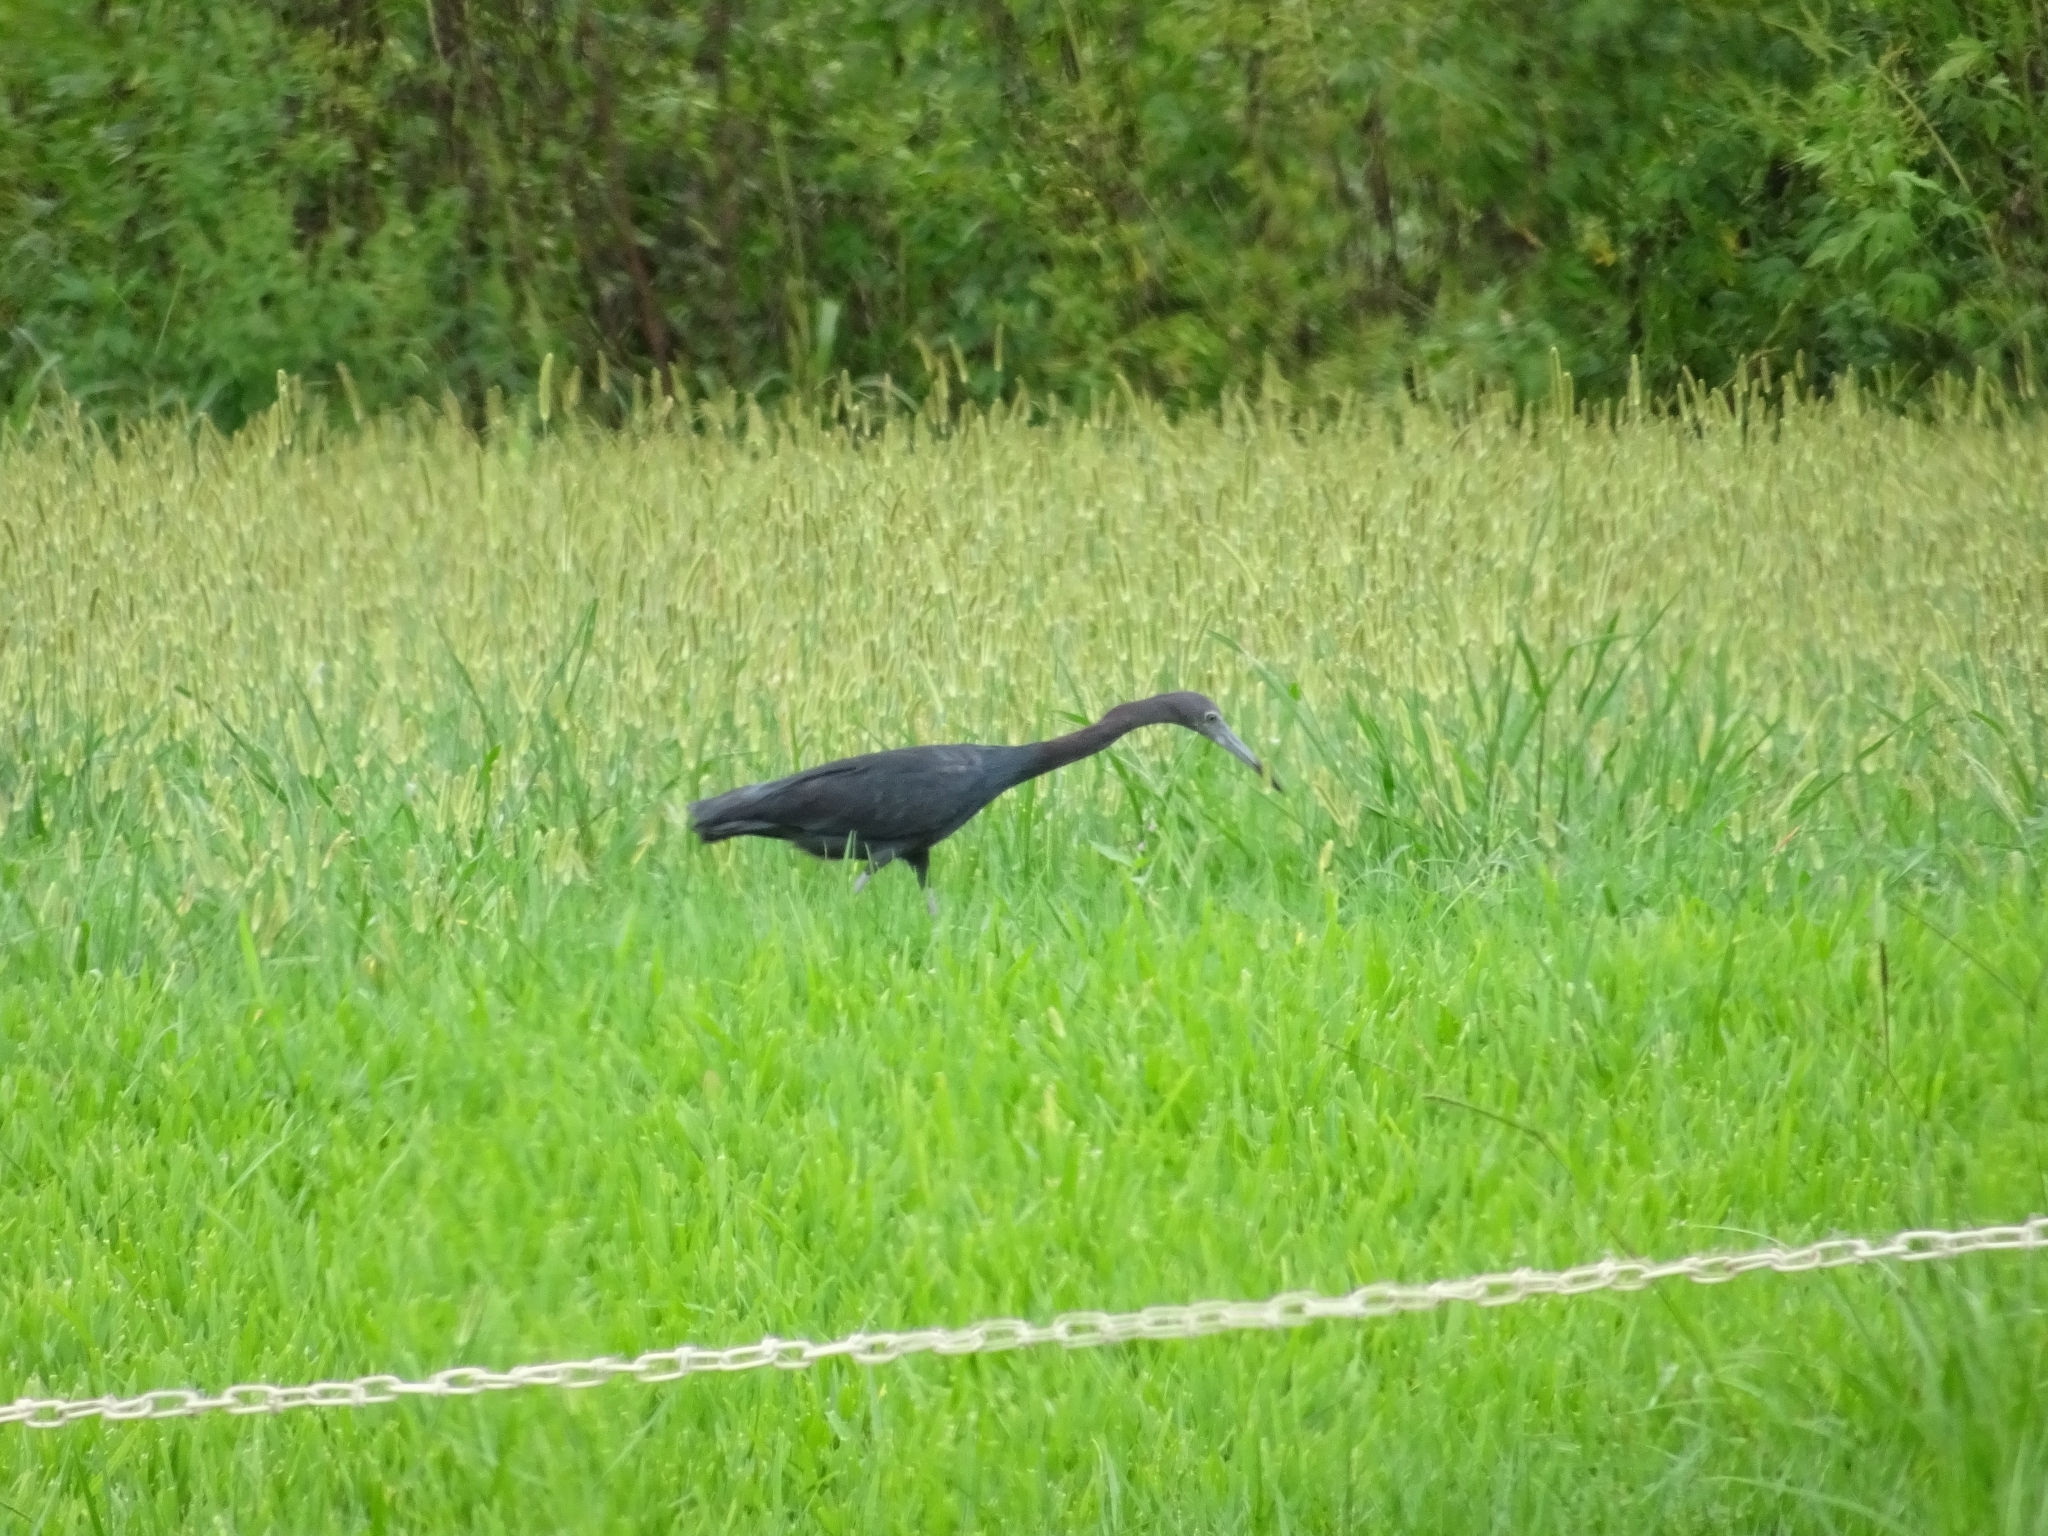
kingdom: Animalia
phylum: Chordata
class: Aves
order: Pelecaniformes
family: Ardeidae
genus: Egretta
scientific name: Egretta caerulea
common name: Little blue heron
